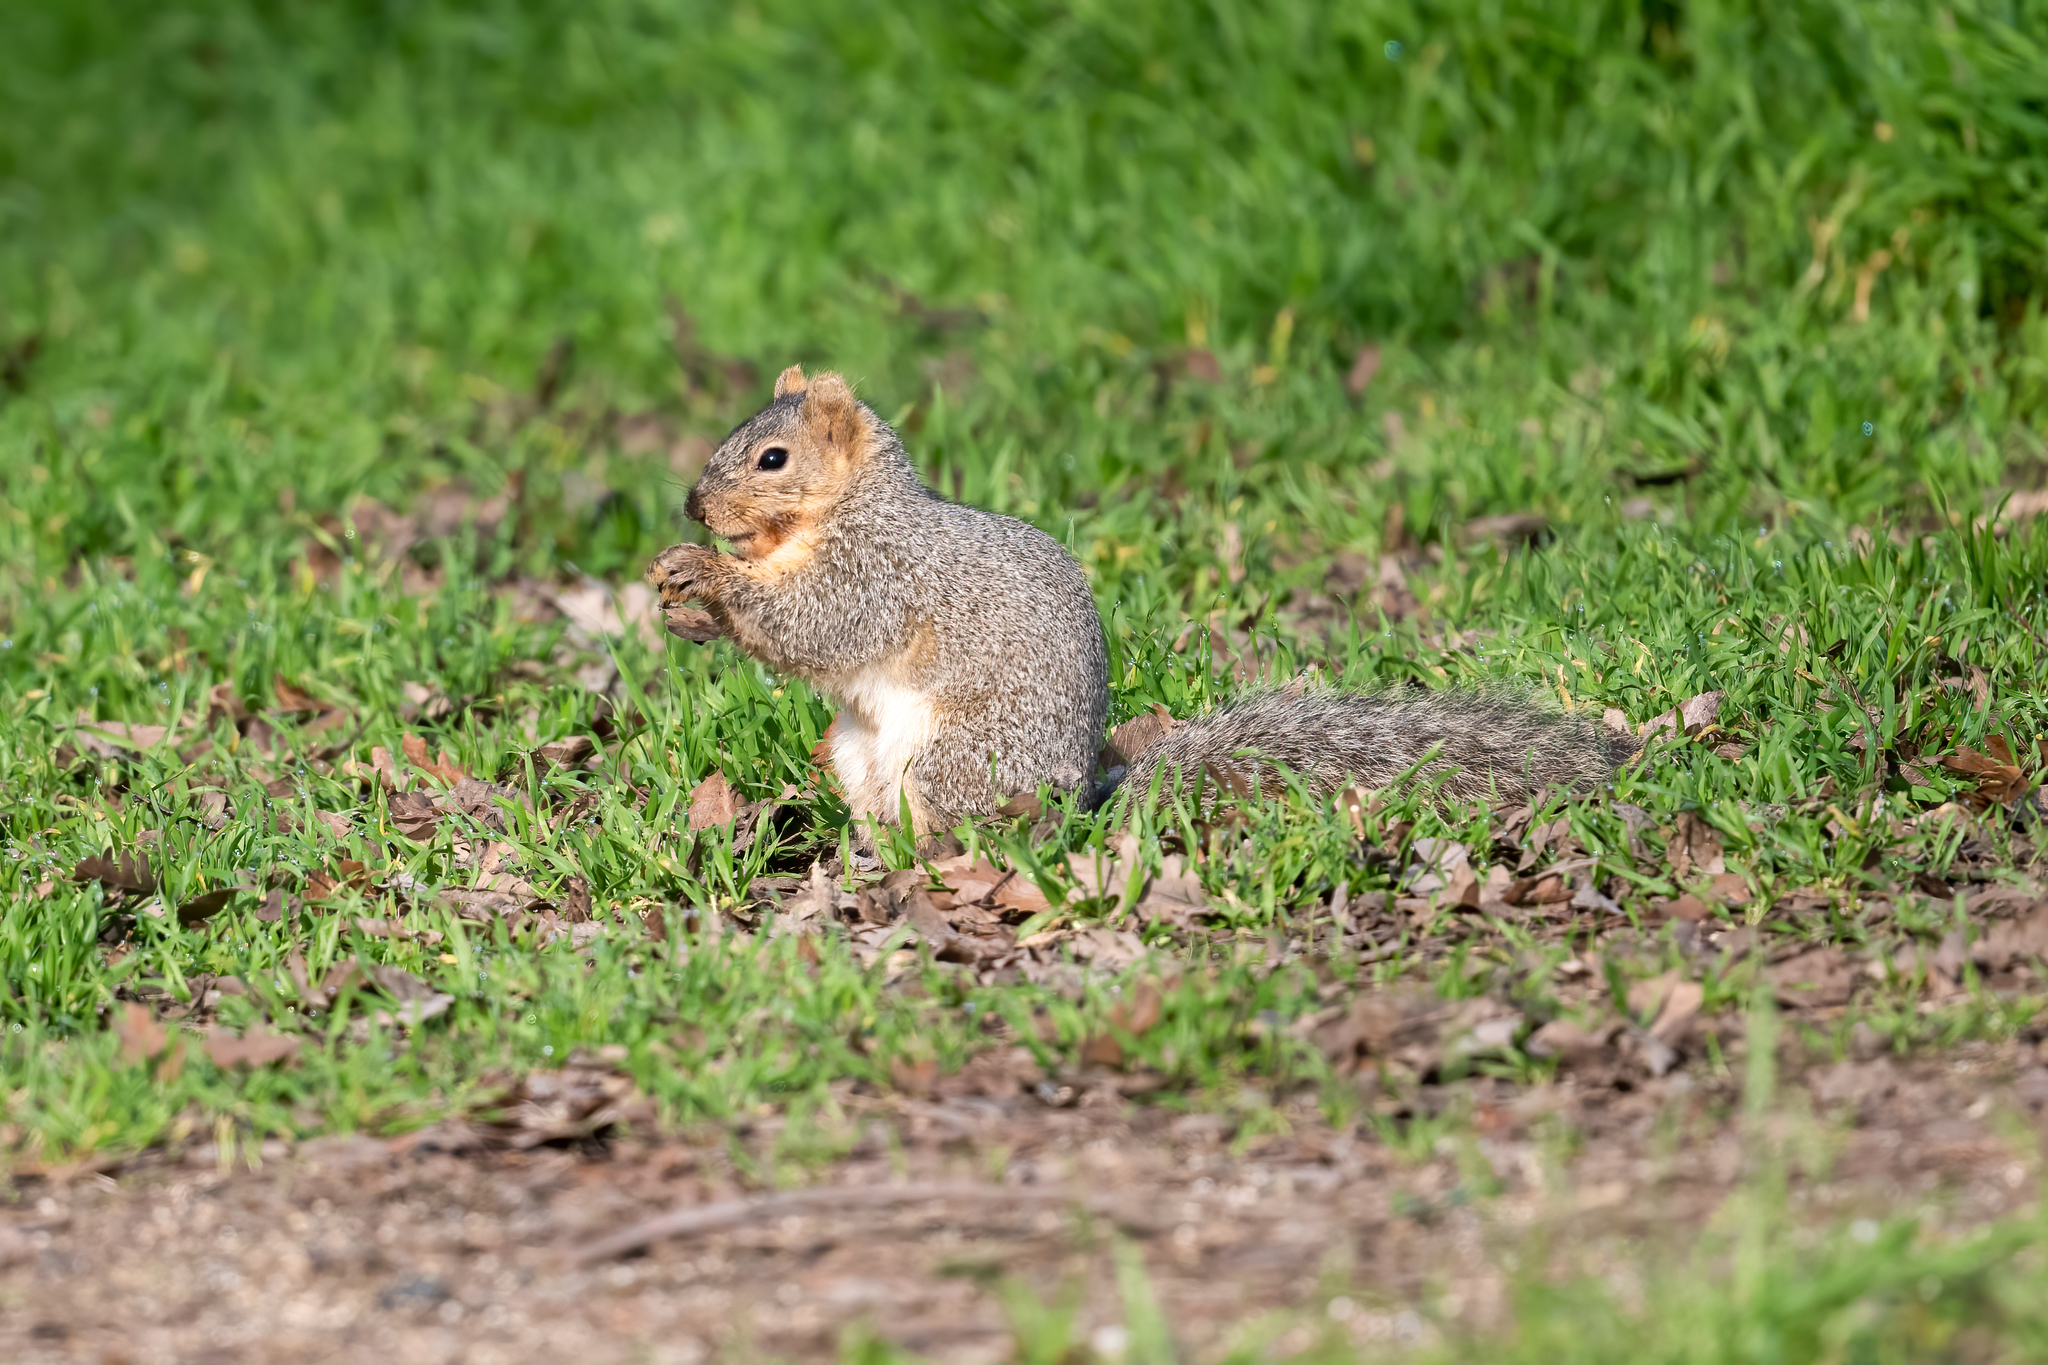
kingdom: Animalia
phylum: Chordata
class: Mammalia
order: Rodentia
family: Sciuridae
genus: Sciurus
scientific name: Sciurus niger
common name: Fox squirrel
